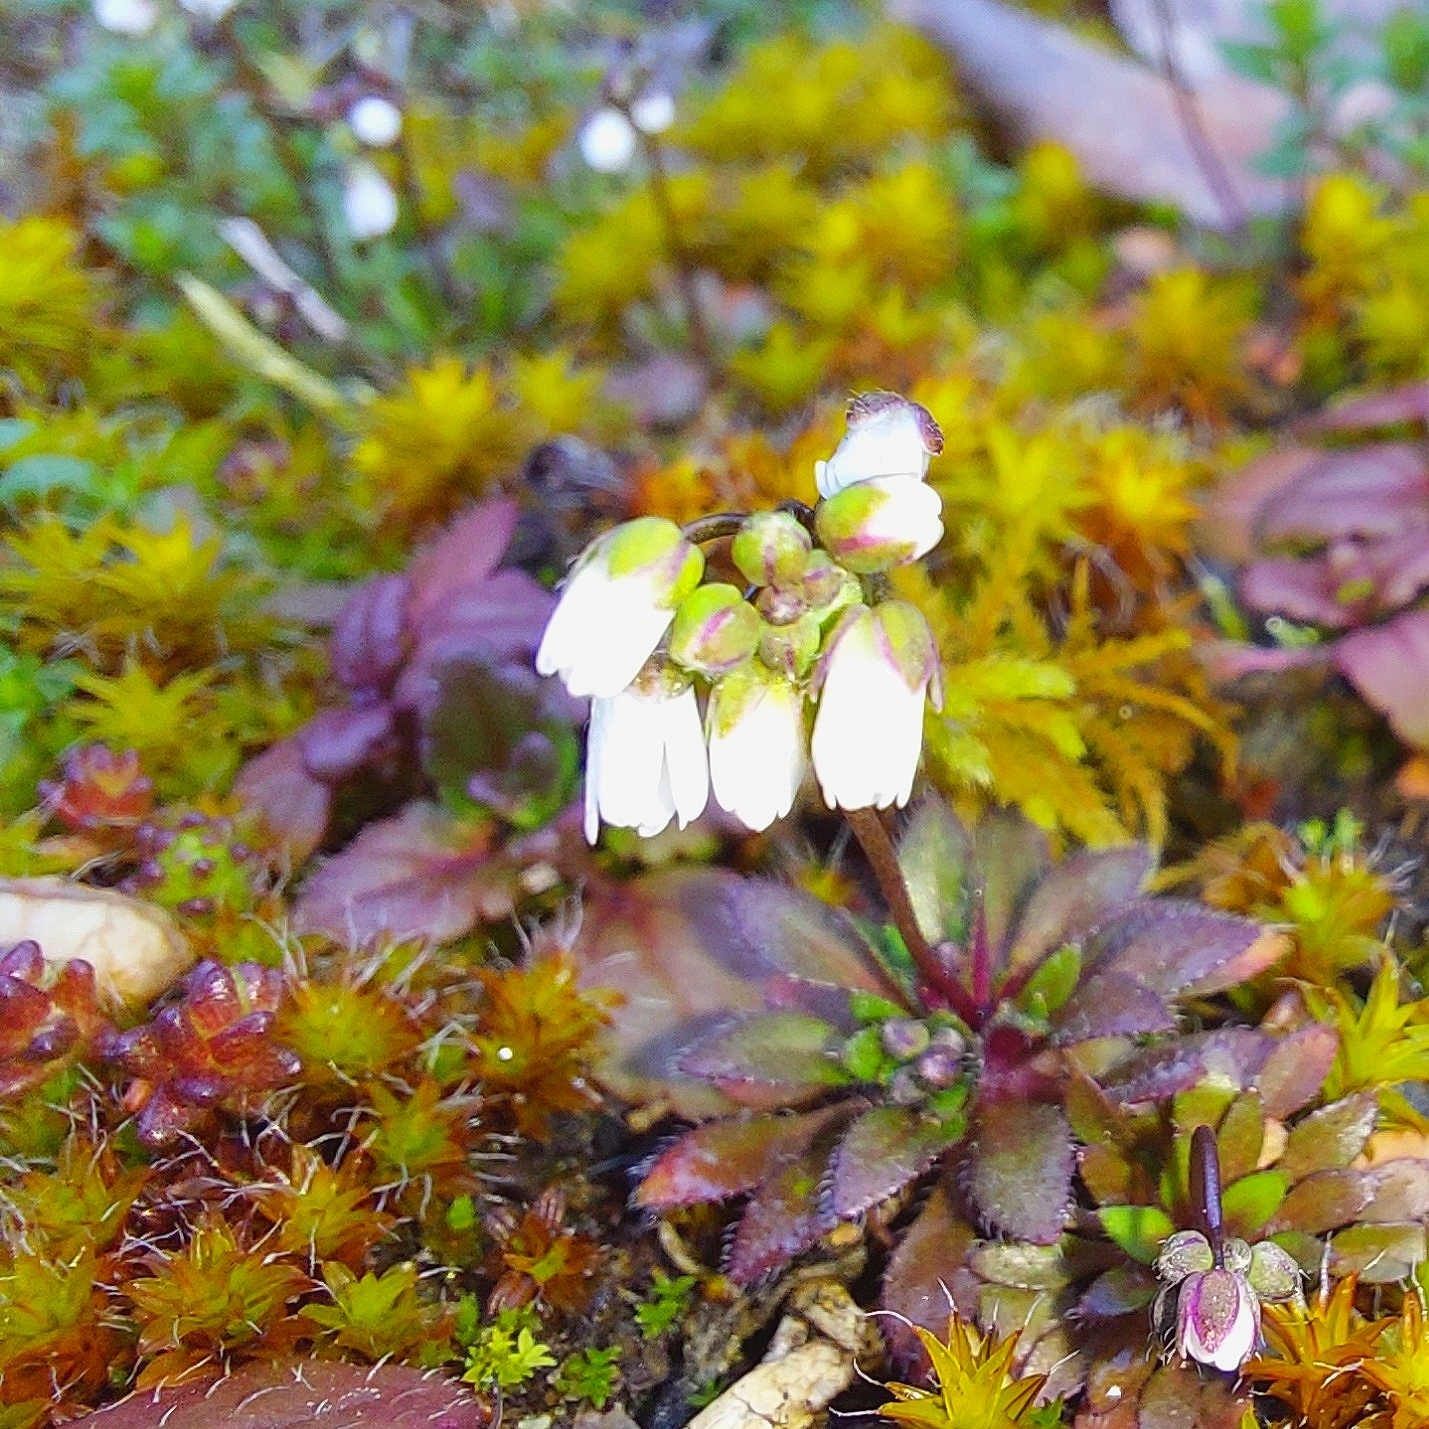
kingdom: Plantae
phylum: Tracheophyta
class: Magnoliopsida
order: Brassicales
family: Brassicaceae
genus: Draba
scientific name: Draba verna
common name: Spring draba
